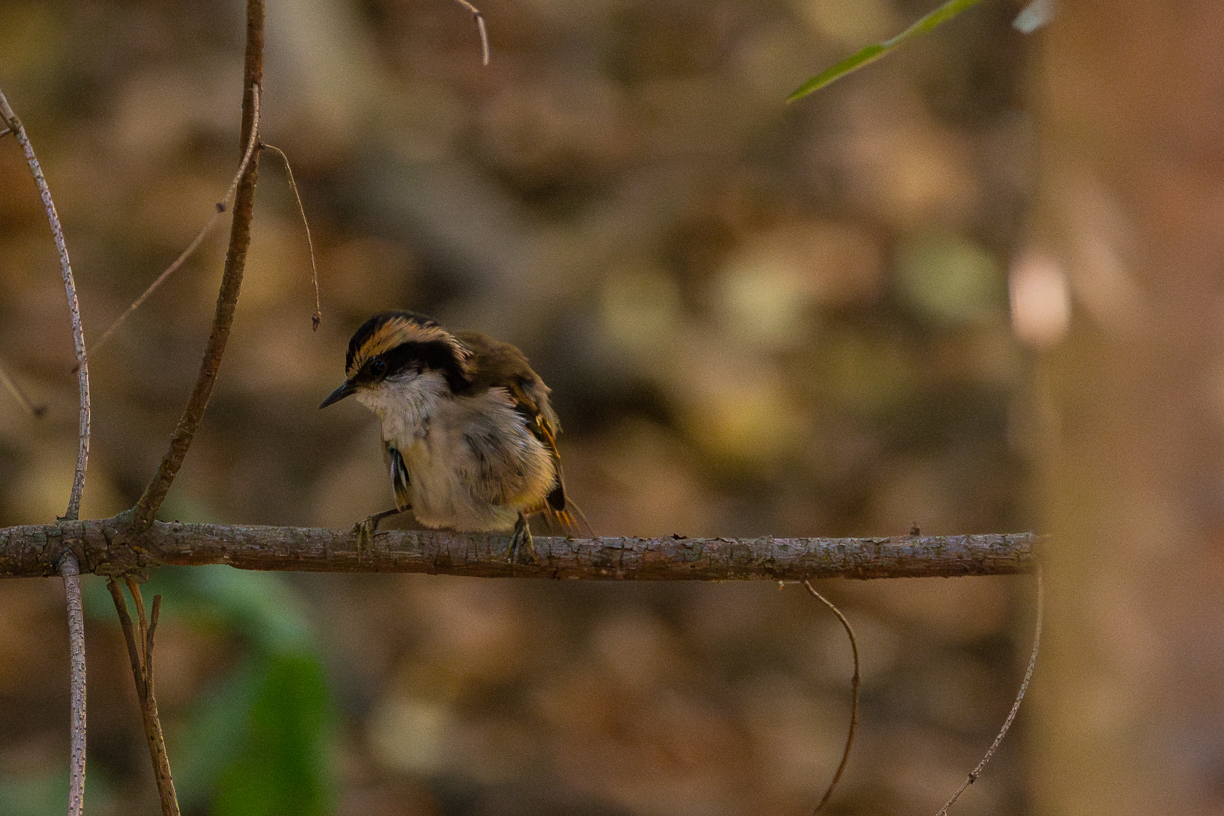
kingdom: Animalia
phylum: Chordata
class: Aves
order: Passeriformes
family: Furnariidae
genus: Aphrastura
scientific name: Aphrastura spinicauda
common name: Thorn-tailed rayadito
